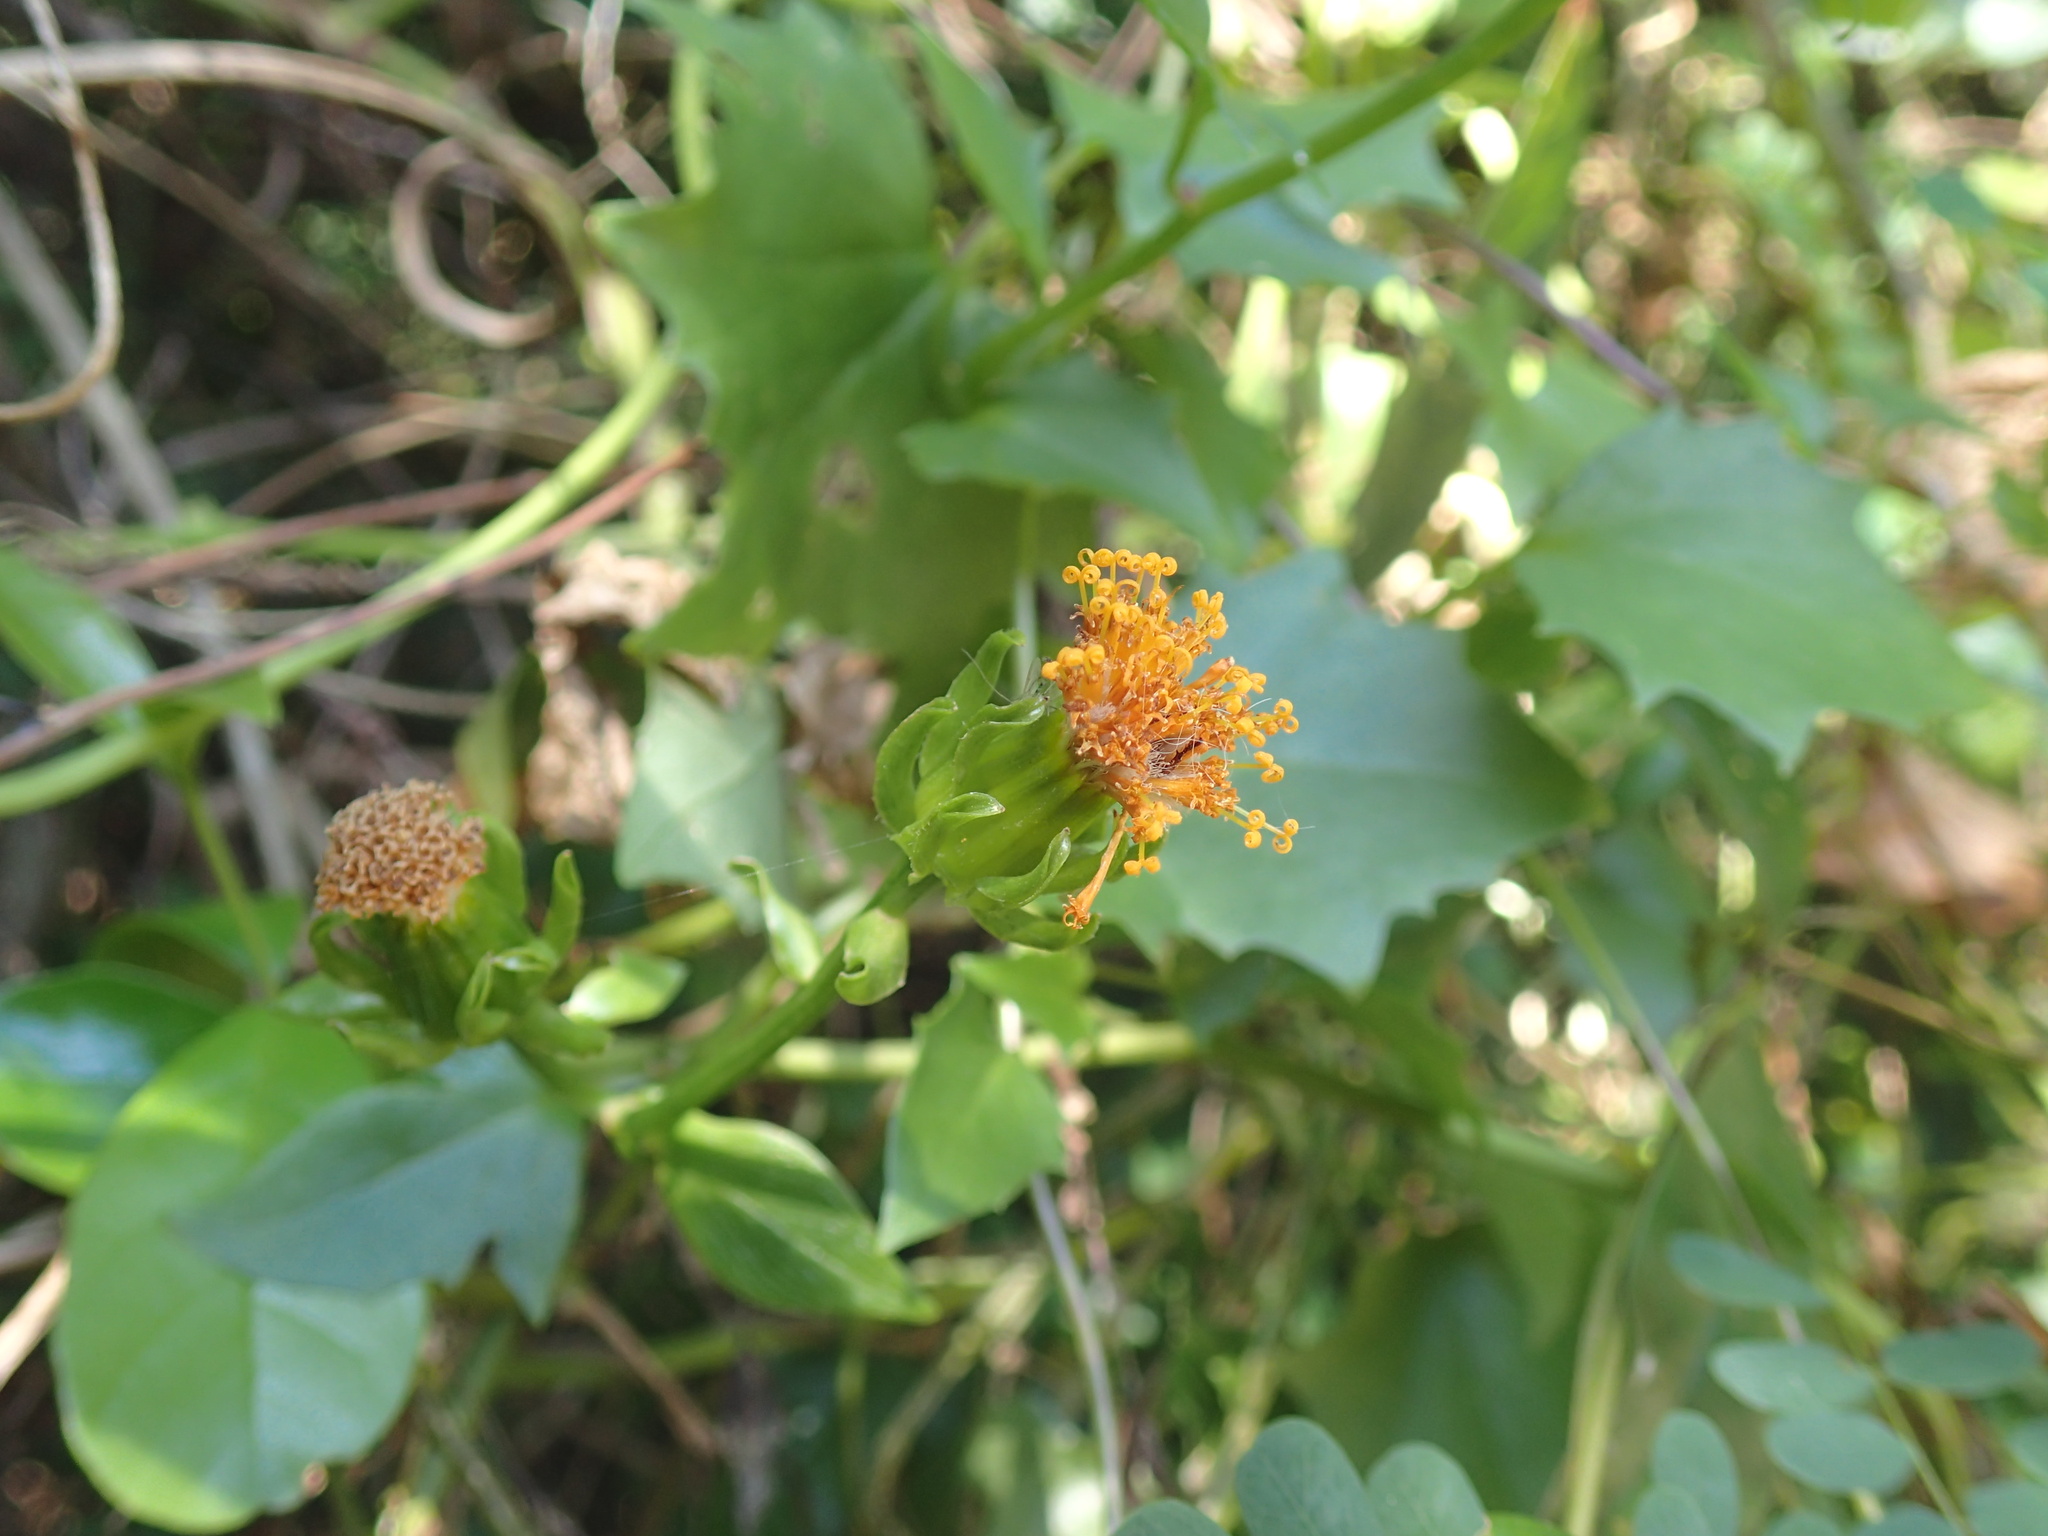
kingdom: Plantae
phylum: Tracheophyta
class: Magnoliopsida
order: Asterales
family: Asteraceae
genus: Senecio
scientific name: Senecio helminthioides
